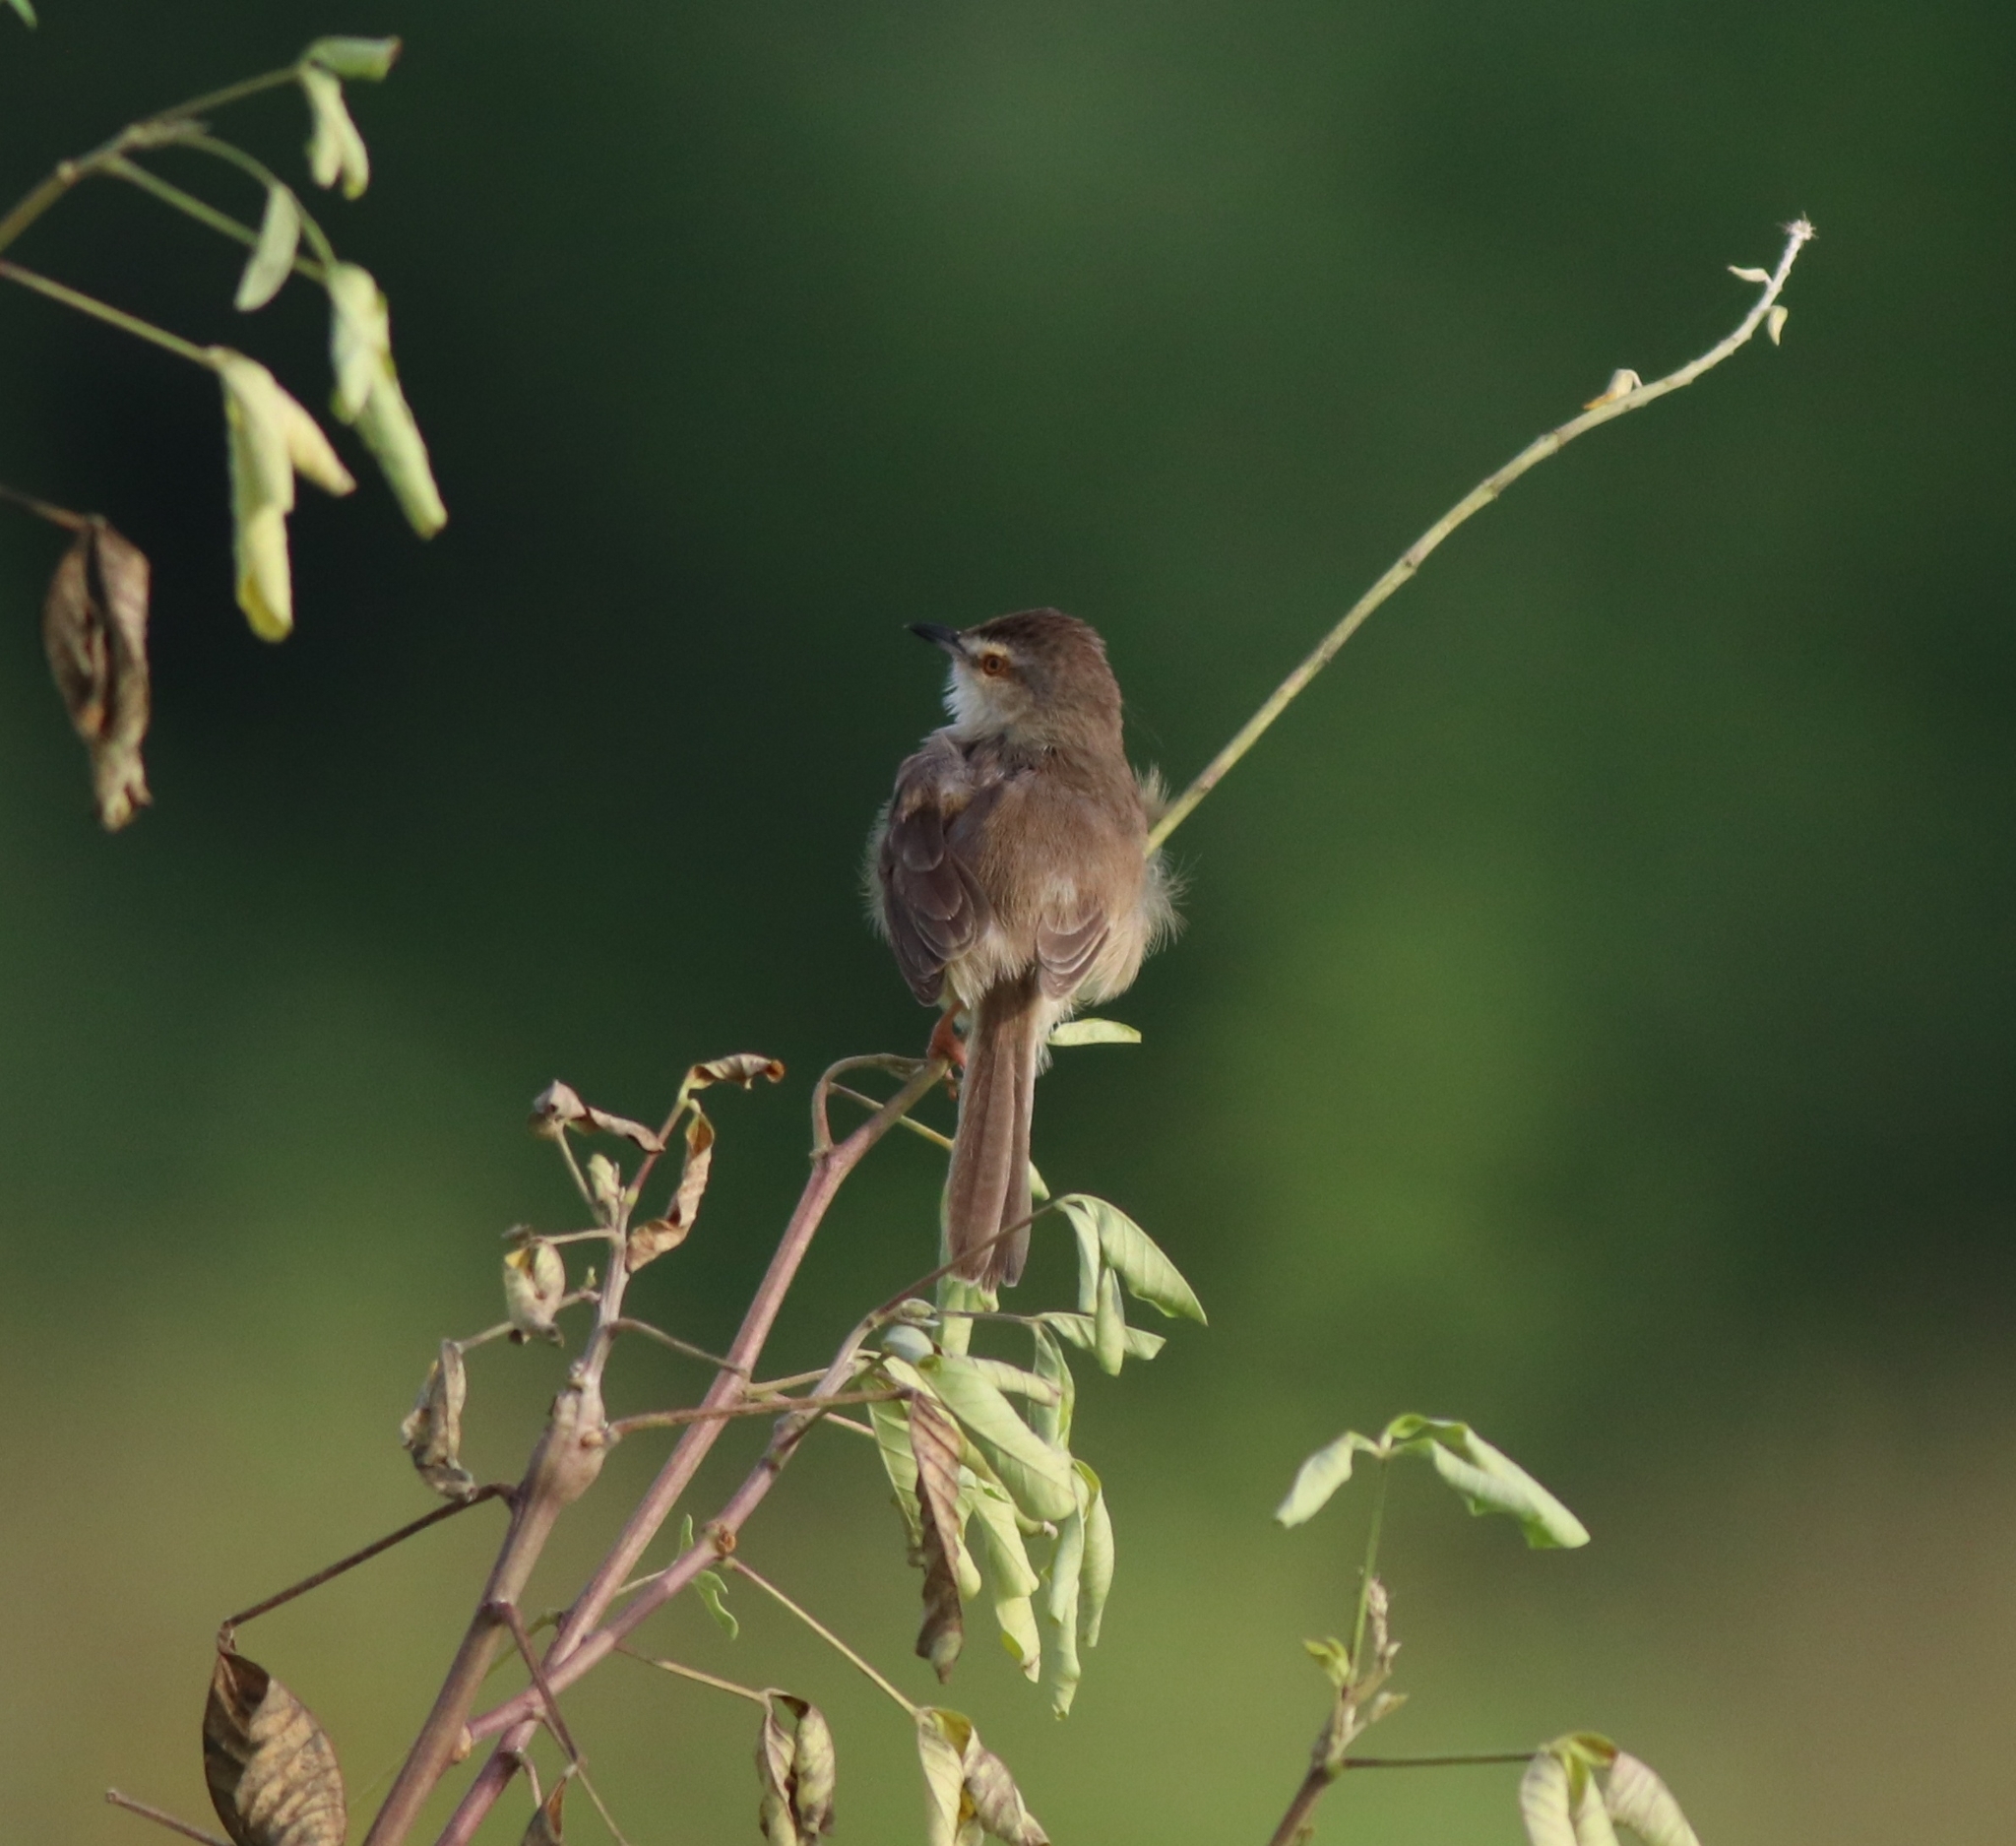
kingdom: Animalia
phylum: Chordata
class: Aves
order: Passeriformes
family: Cisticolidae
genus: Prinia
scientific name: Prinia inornata
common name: Plain prinia
